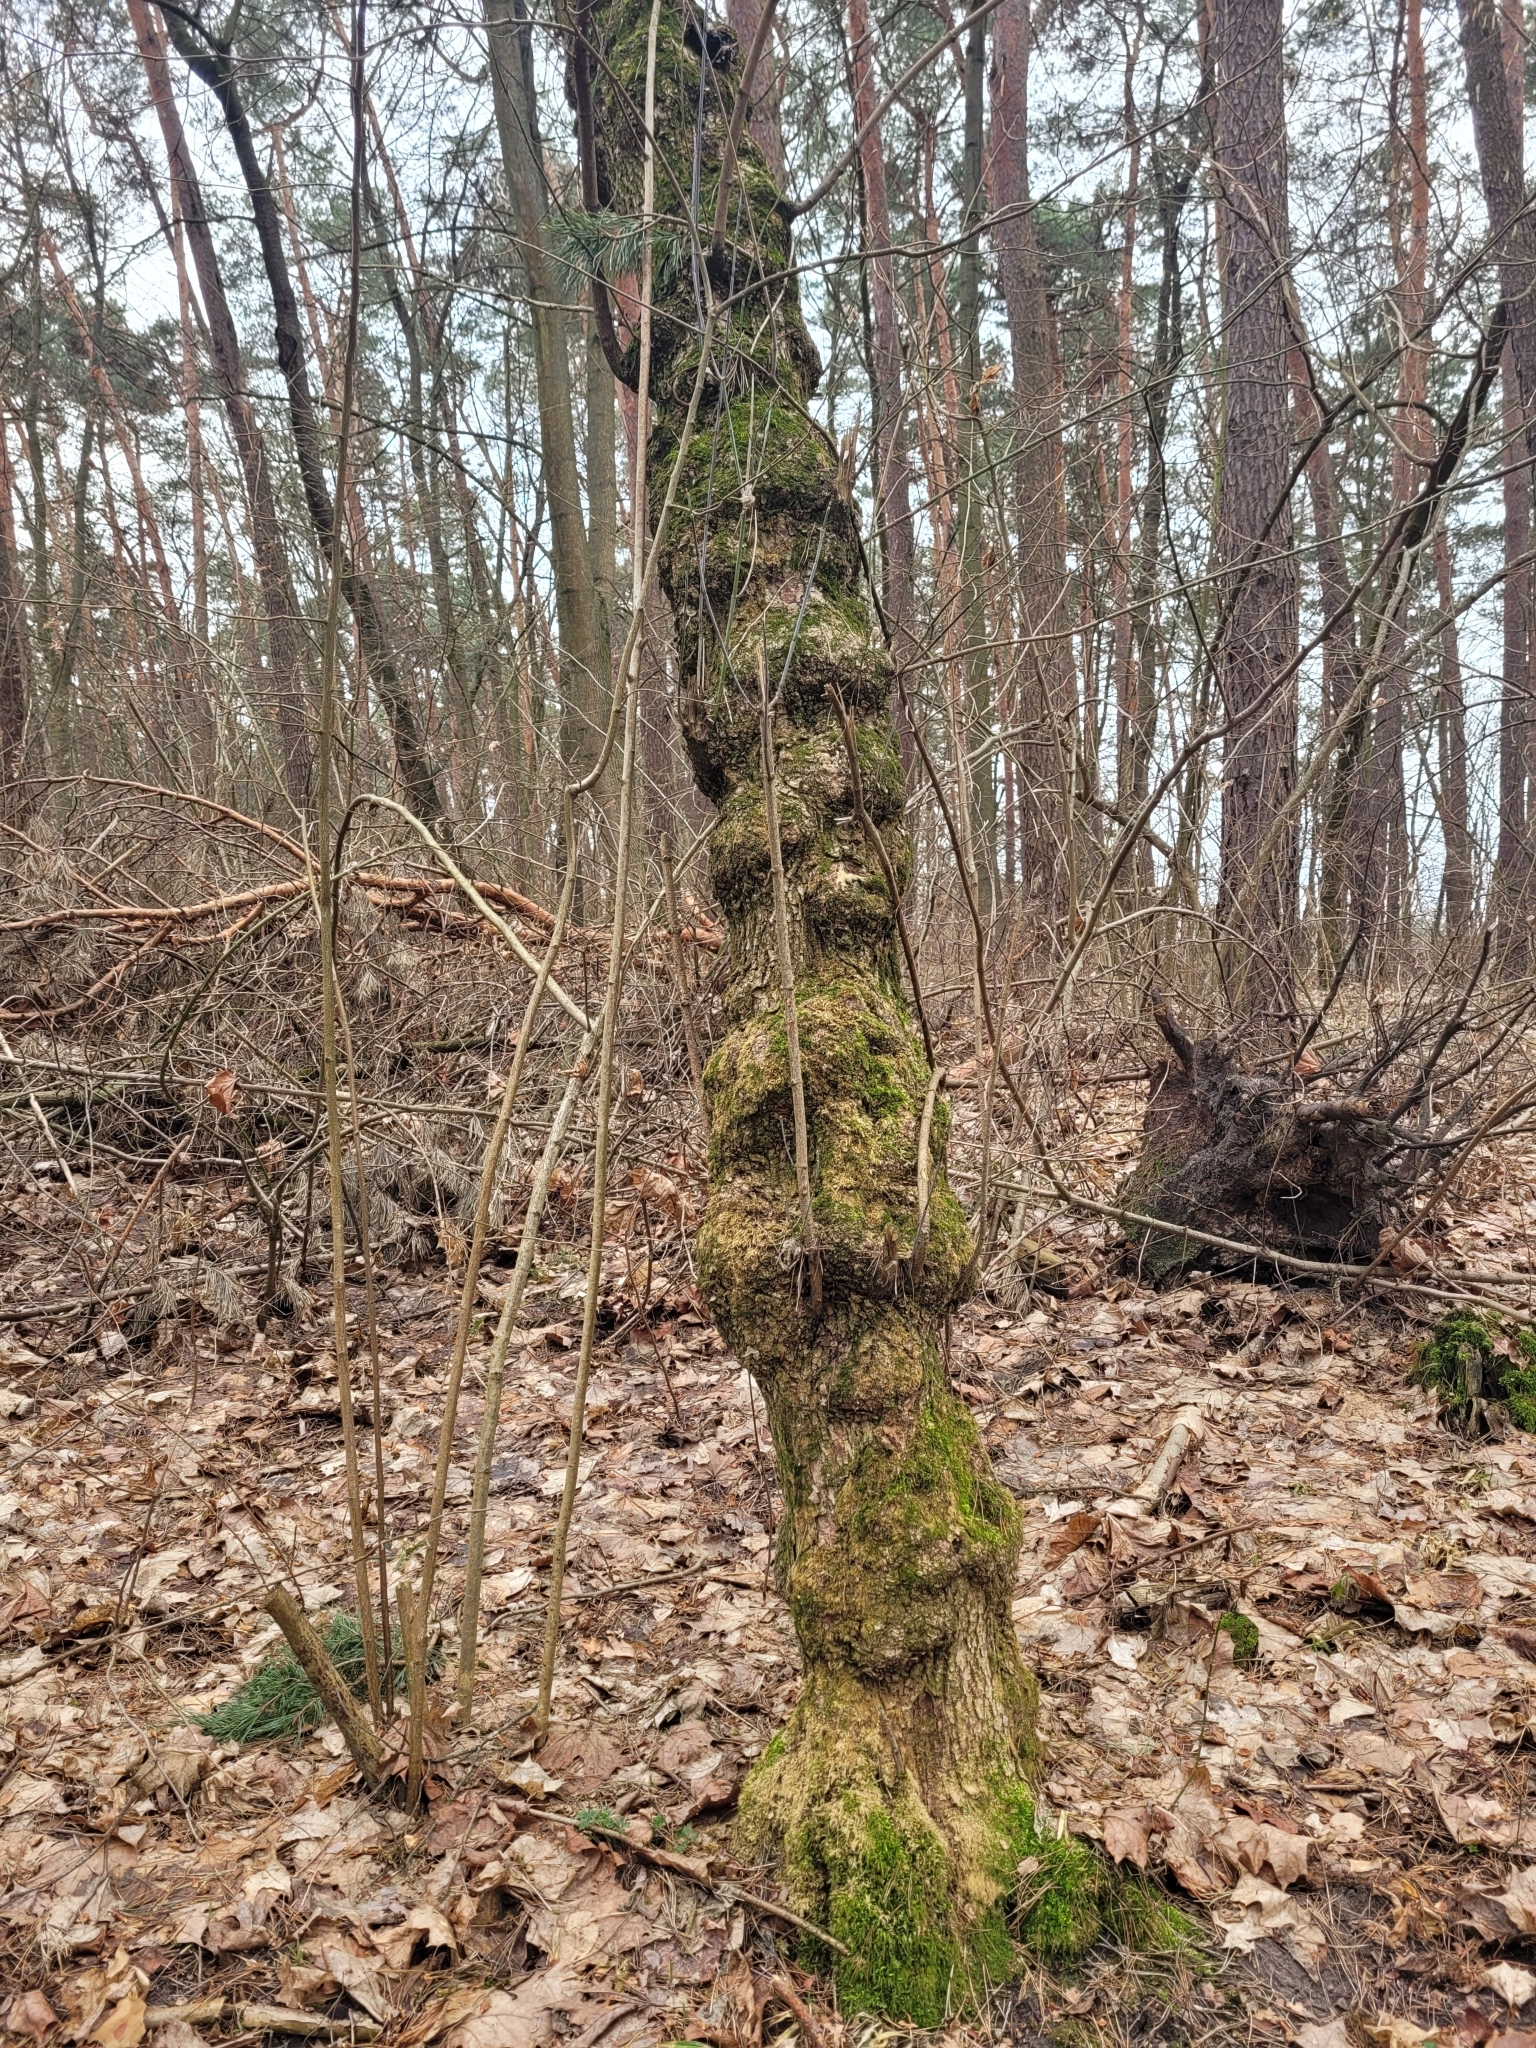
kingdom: Plantae
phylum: Tracheophyta
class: Magnoliopsida
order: Dipsacales
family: Viburnaceae
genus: Sambucus
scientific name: Sambucus nigra
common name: Elder
